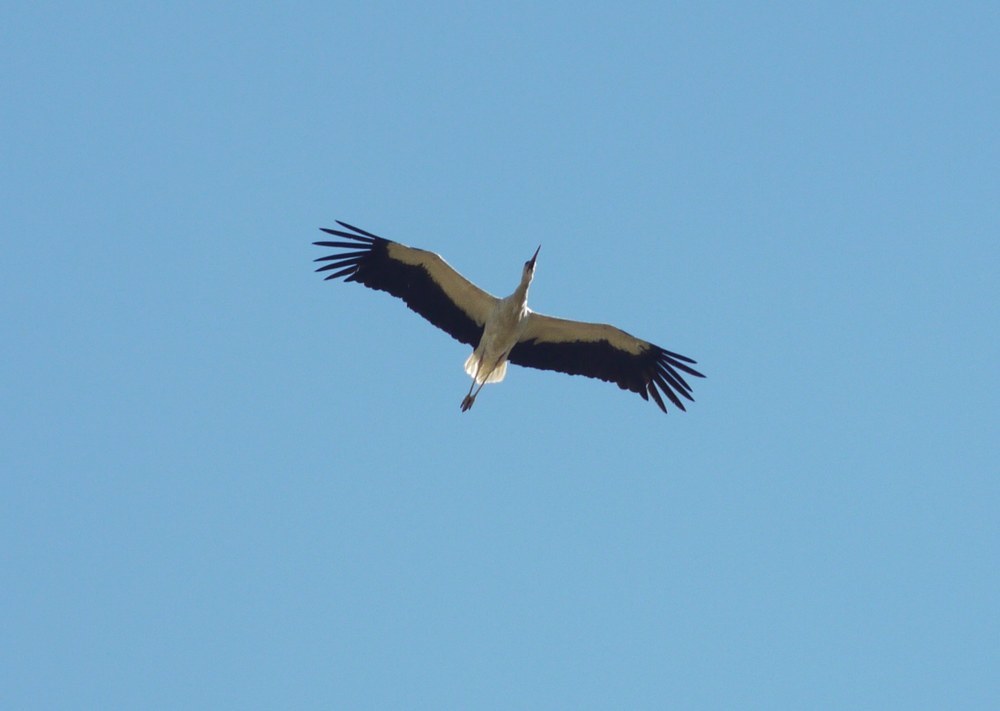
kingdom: Animalia
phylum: Chordata
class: Aves
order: Ciconiiformes
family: Ciconiidae
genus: Ciconia
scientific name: Ciconia ciconia
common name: White stork
